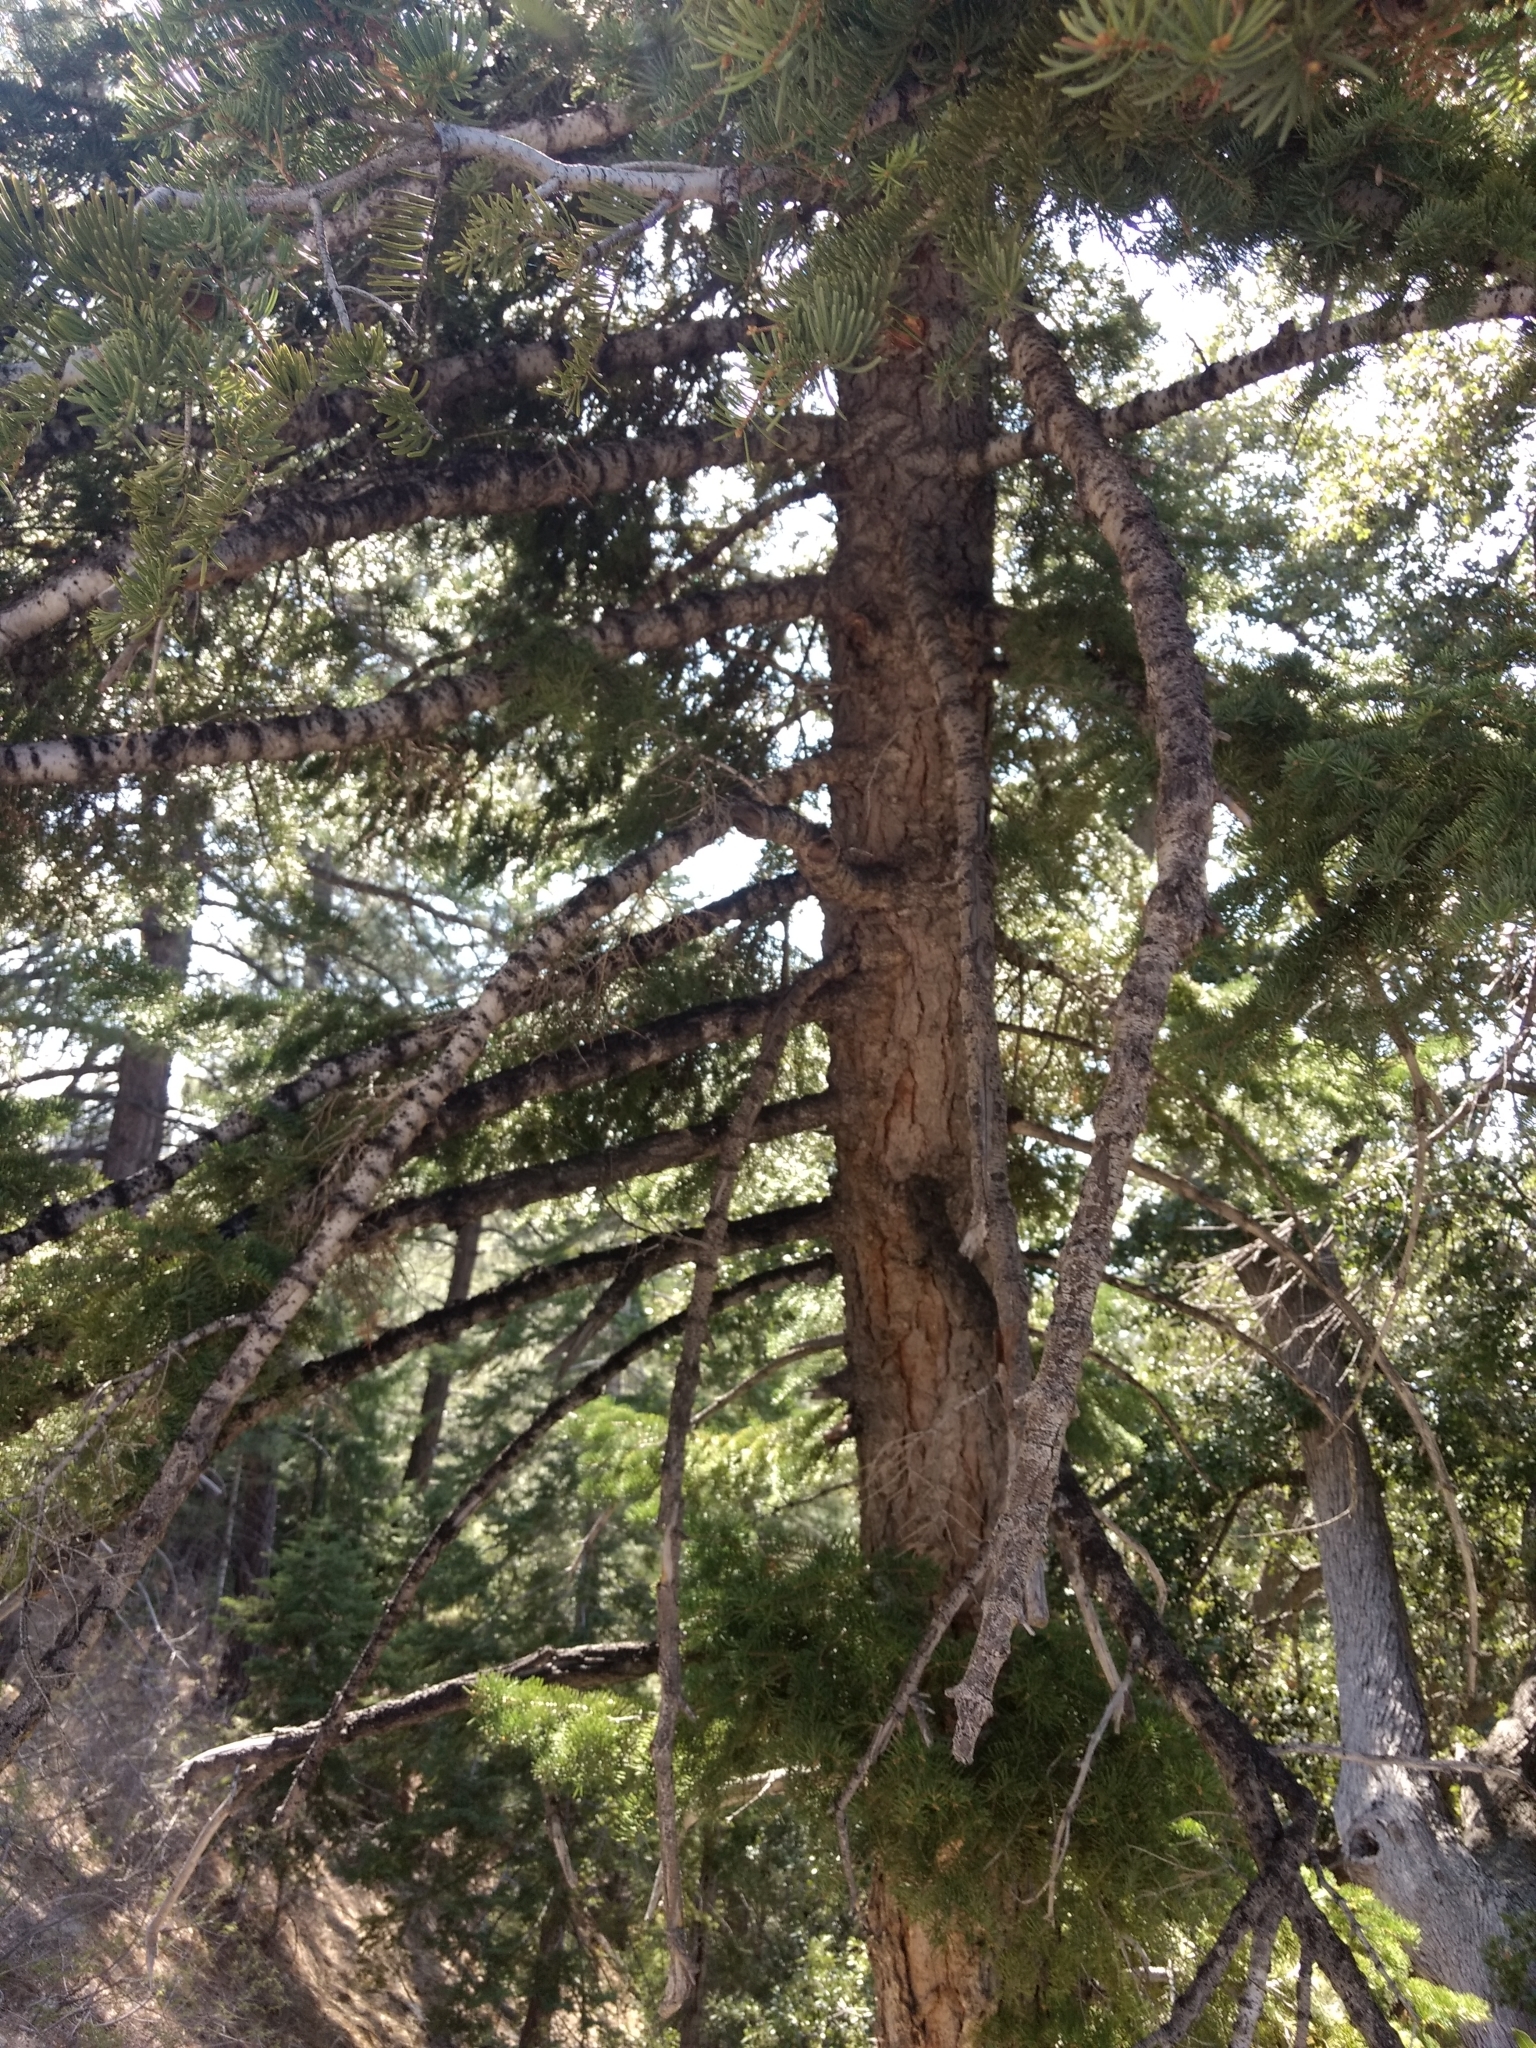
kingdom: Plantae
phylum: Tracheophyta
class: Pinopsida
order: Pinales
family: Pinaceae
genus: Abies
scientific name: Abies concolor
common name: Colorado fir
